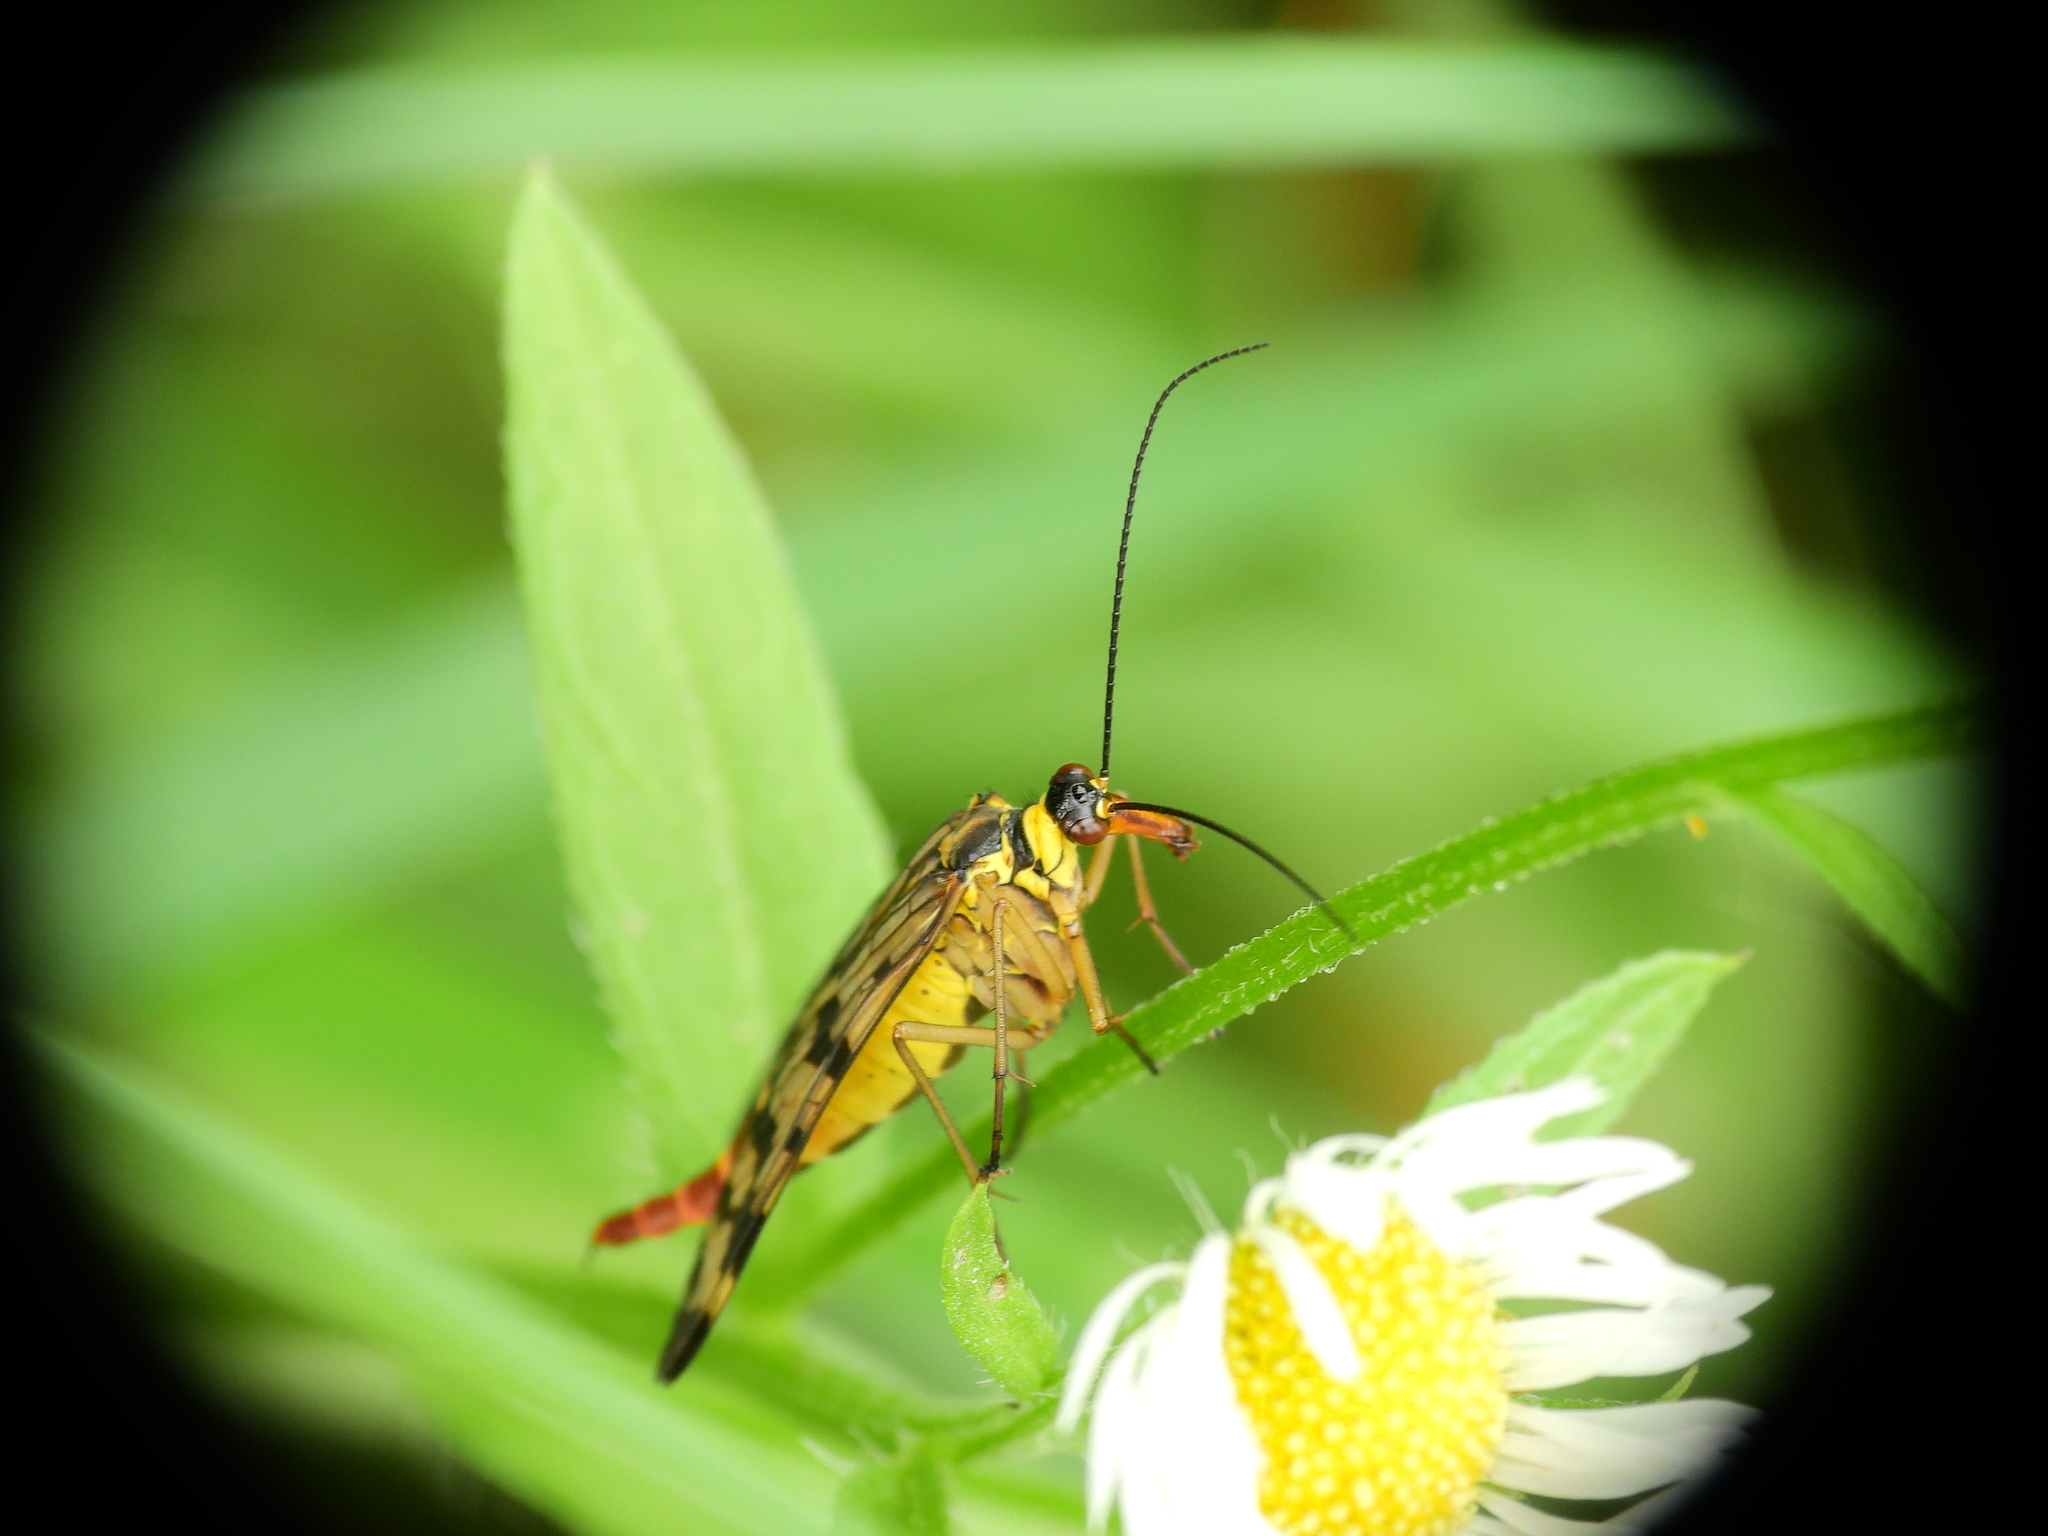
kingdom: Animalia
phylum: Arthropoda
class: Insecta
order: Mecoptera
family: Panorpidae
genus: Panorpa
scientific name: Panorpa communis
